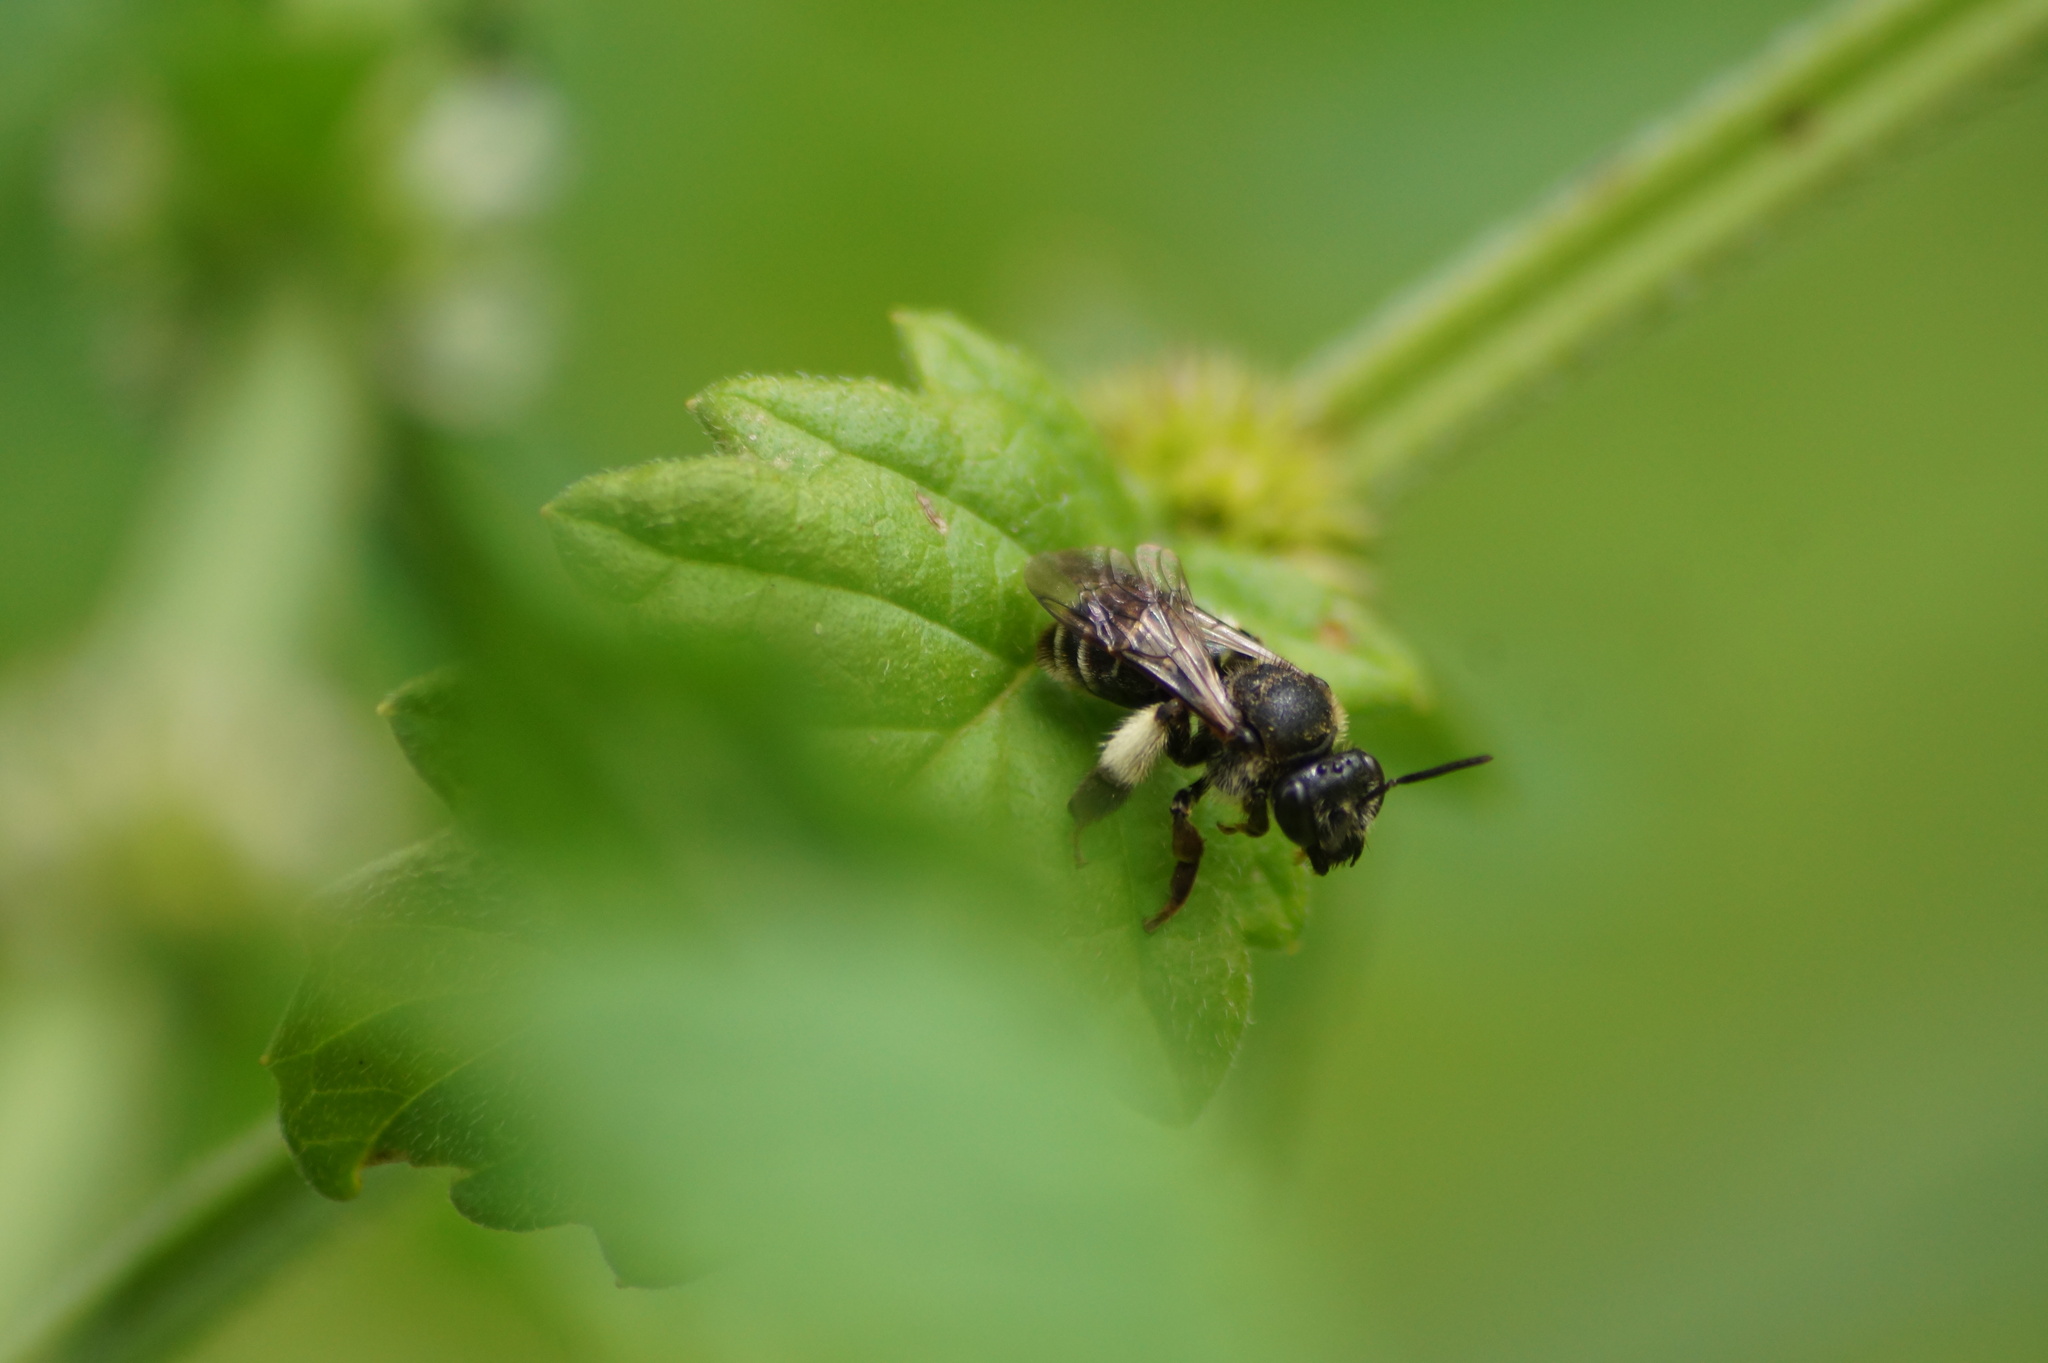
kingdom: Animalia
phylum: Arthropoda
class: Insecta
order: Hymenoptera
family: Melittidae
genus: Macropis
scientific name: Macropis europaea
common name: Yellow loosestrife bee
